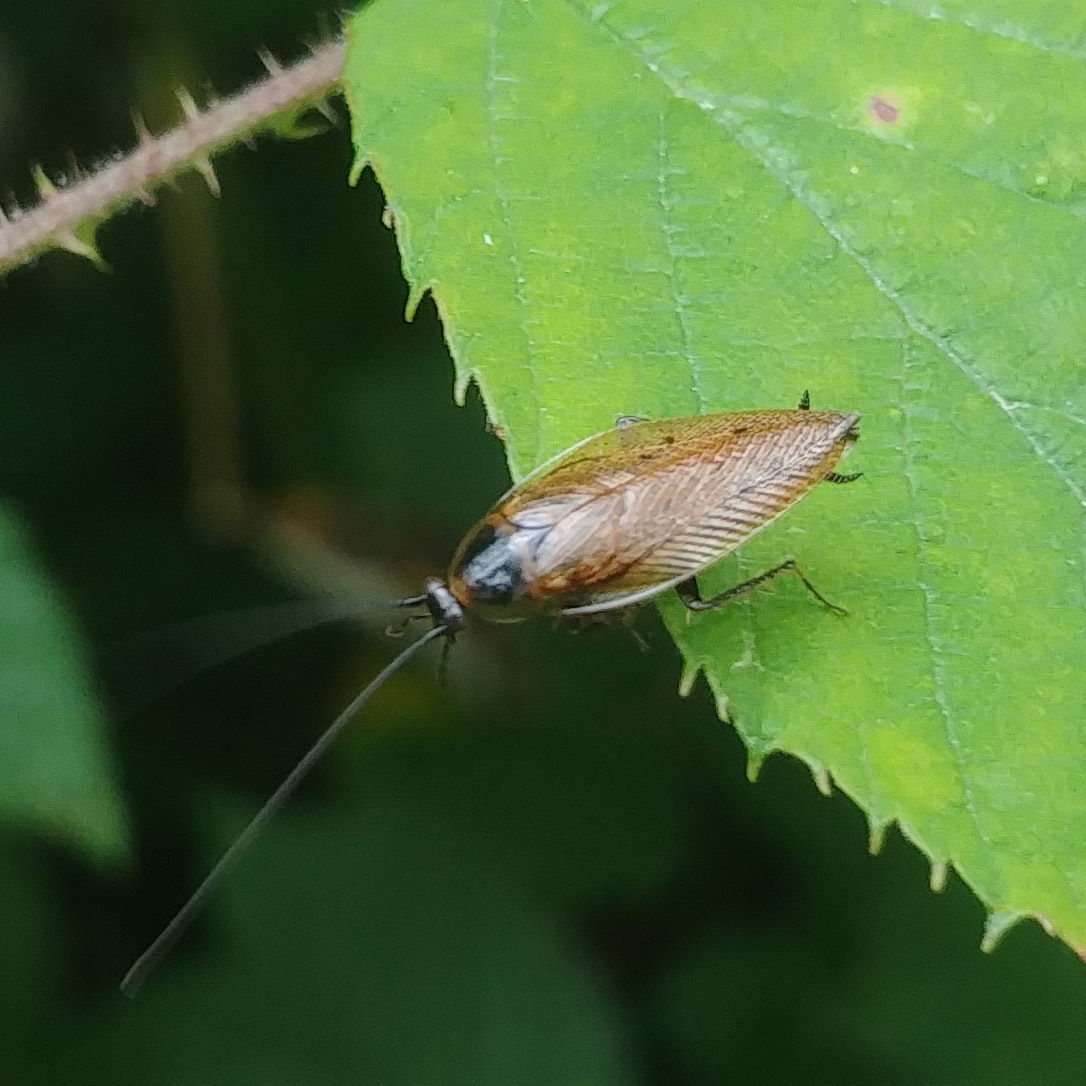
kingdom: Animalia
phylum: Arthropoda
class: Insecta
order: Blattodea
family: Ectobiidae
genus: Ectobius
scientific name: Ectobius lapponicus
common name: Dusky cockroach
